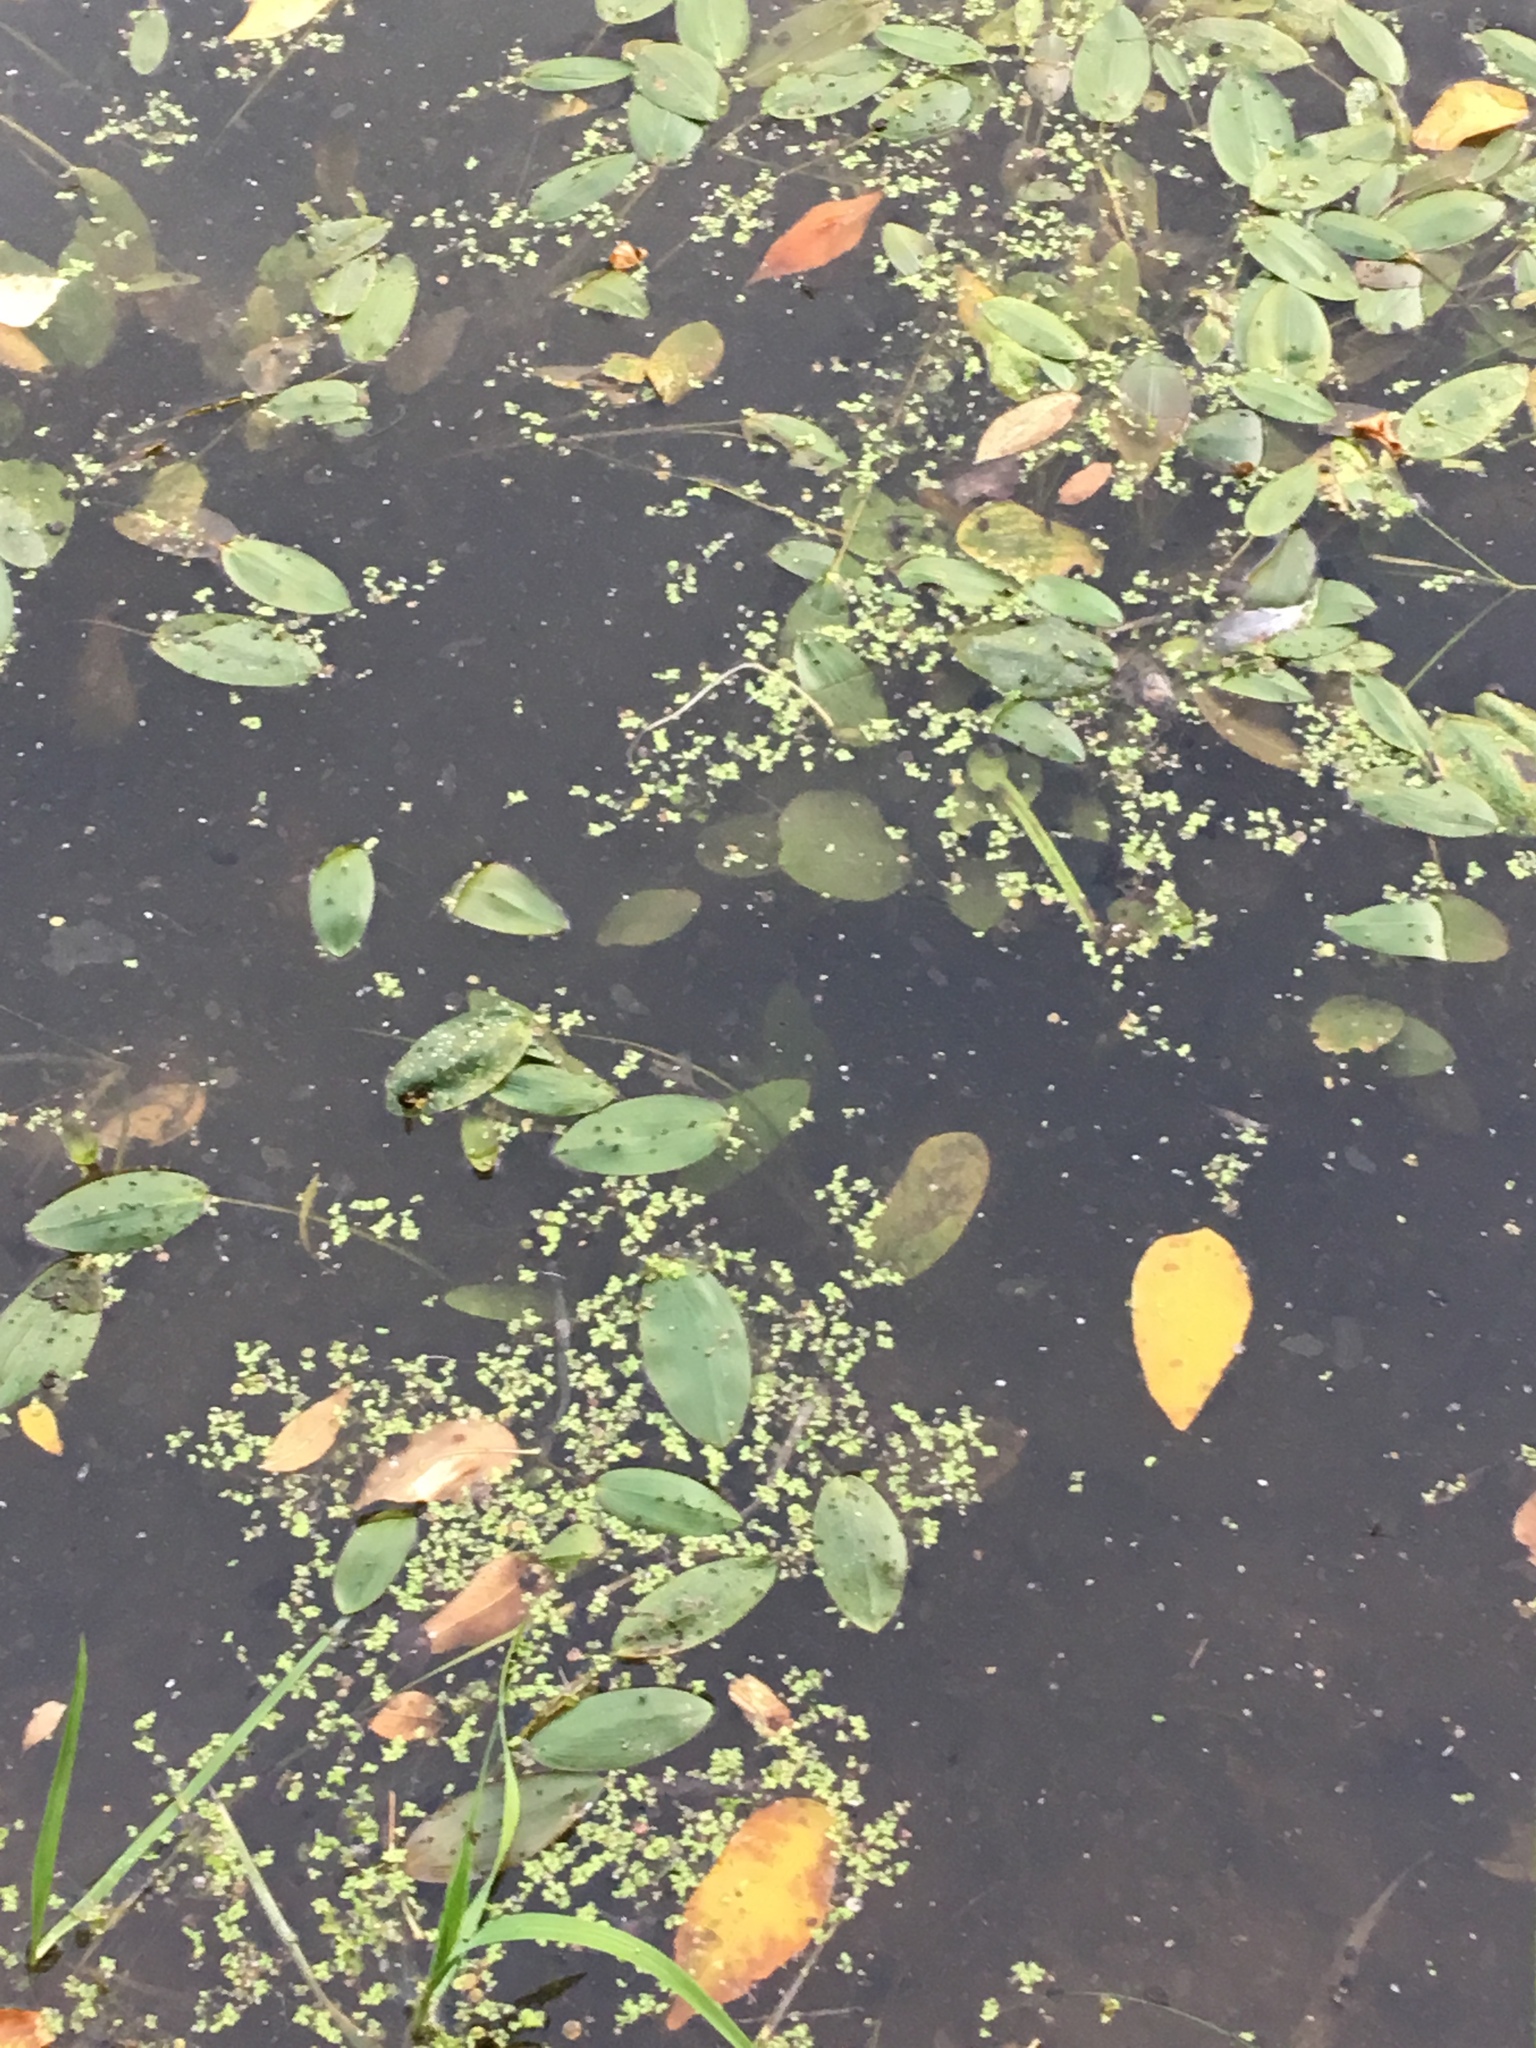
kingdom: Plantae
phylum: Tracheophyta
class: Liliopsida
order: Alismatales
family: Potamogetonaceae
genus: Potamogeton
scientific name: Potamogeton natans
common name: Broad-leaved pondweed
